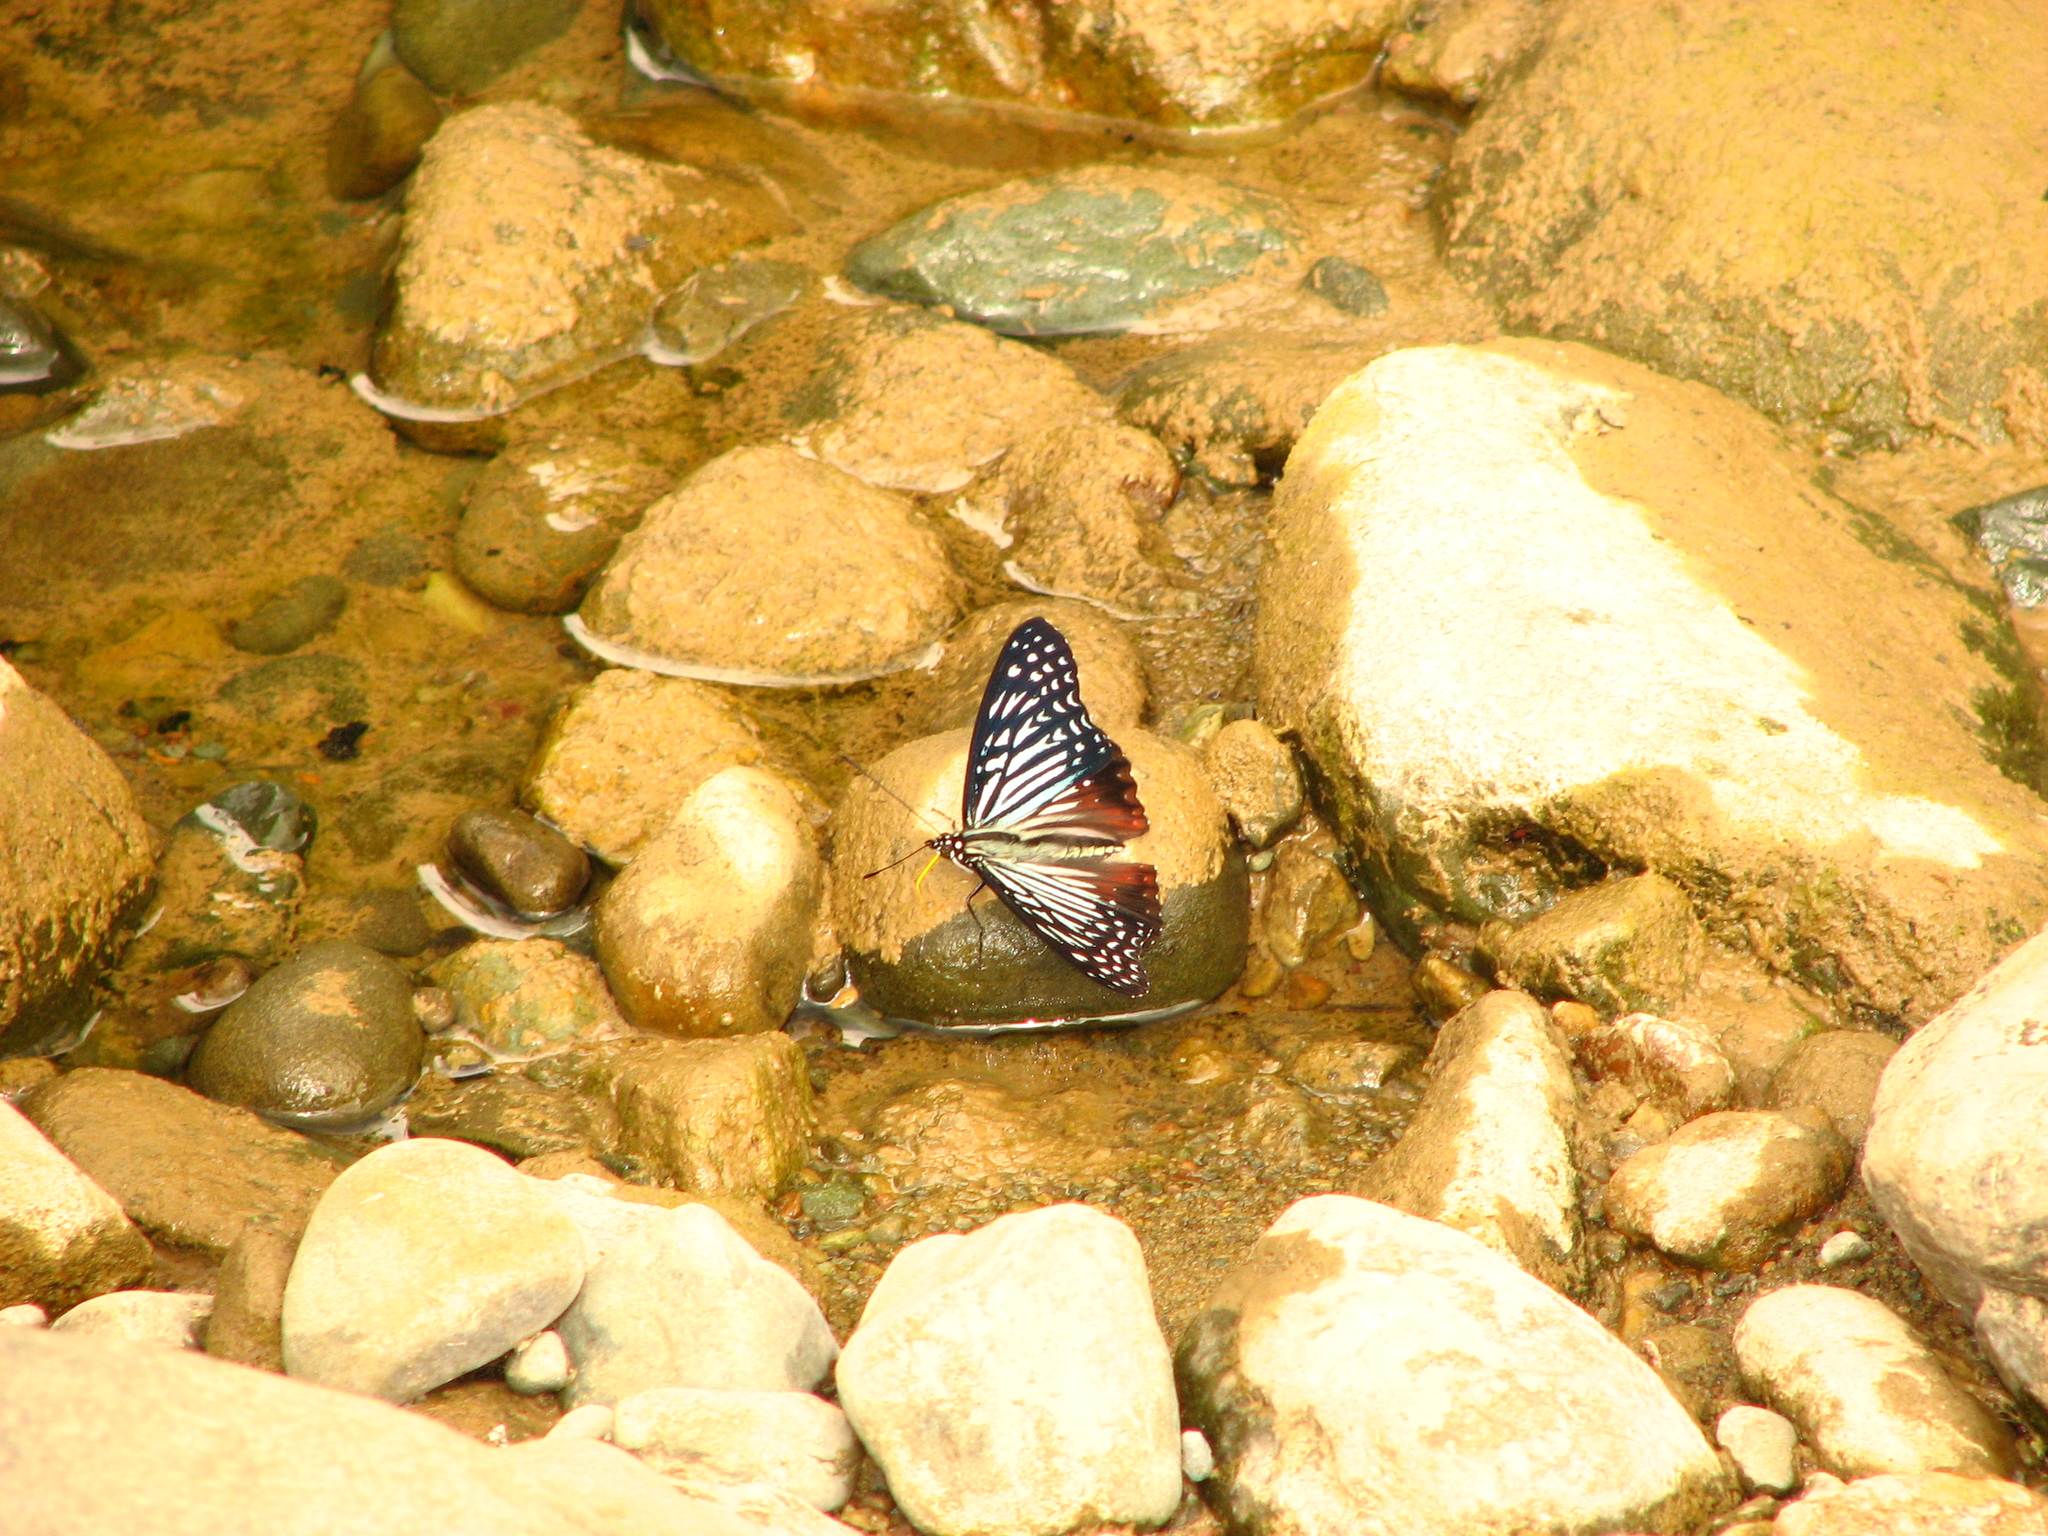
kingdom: Animalia
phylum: Arthropoda
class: Insecta
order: Lepidoptera
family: Nymphalidae
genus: Hestinalis
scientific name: Hestinalis nama
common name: Circe
